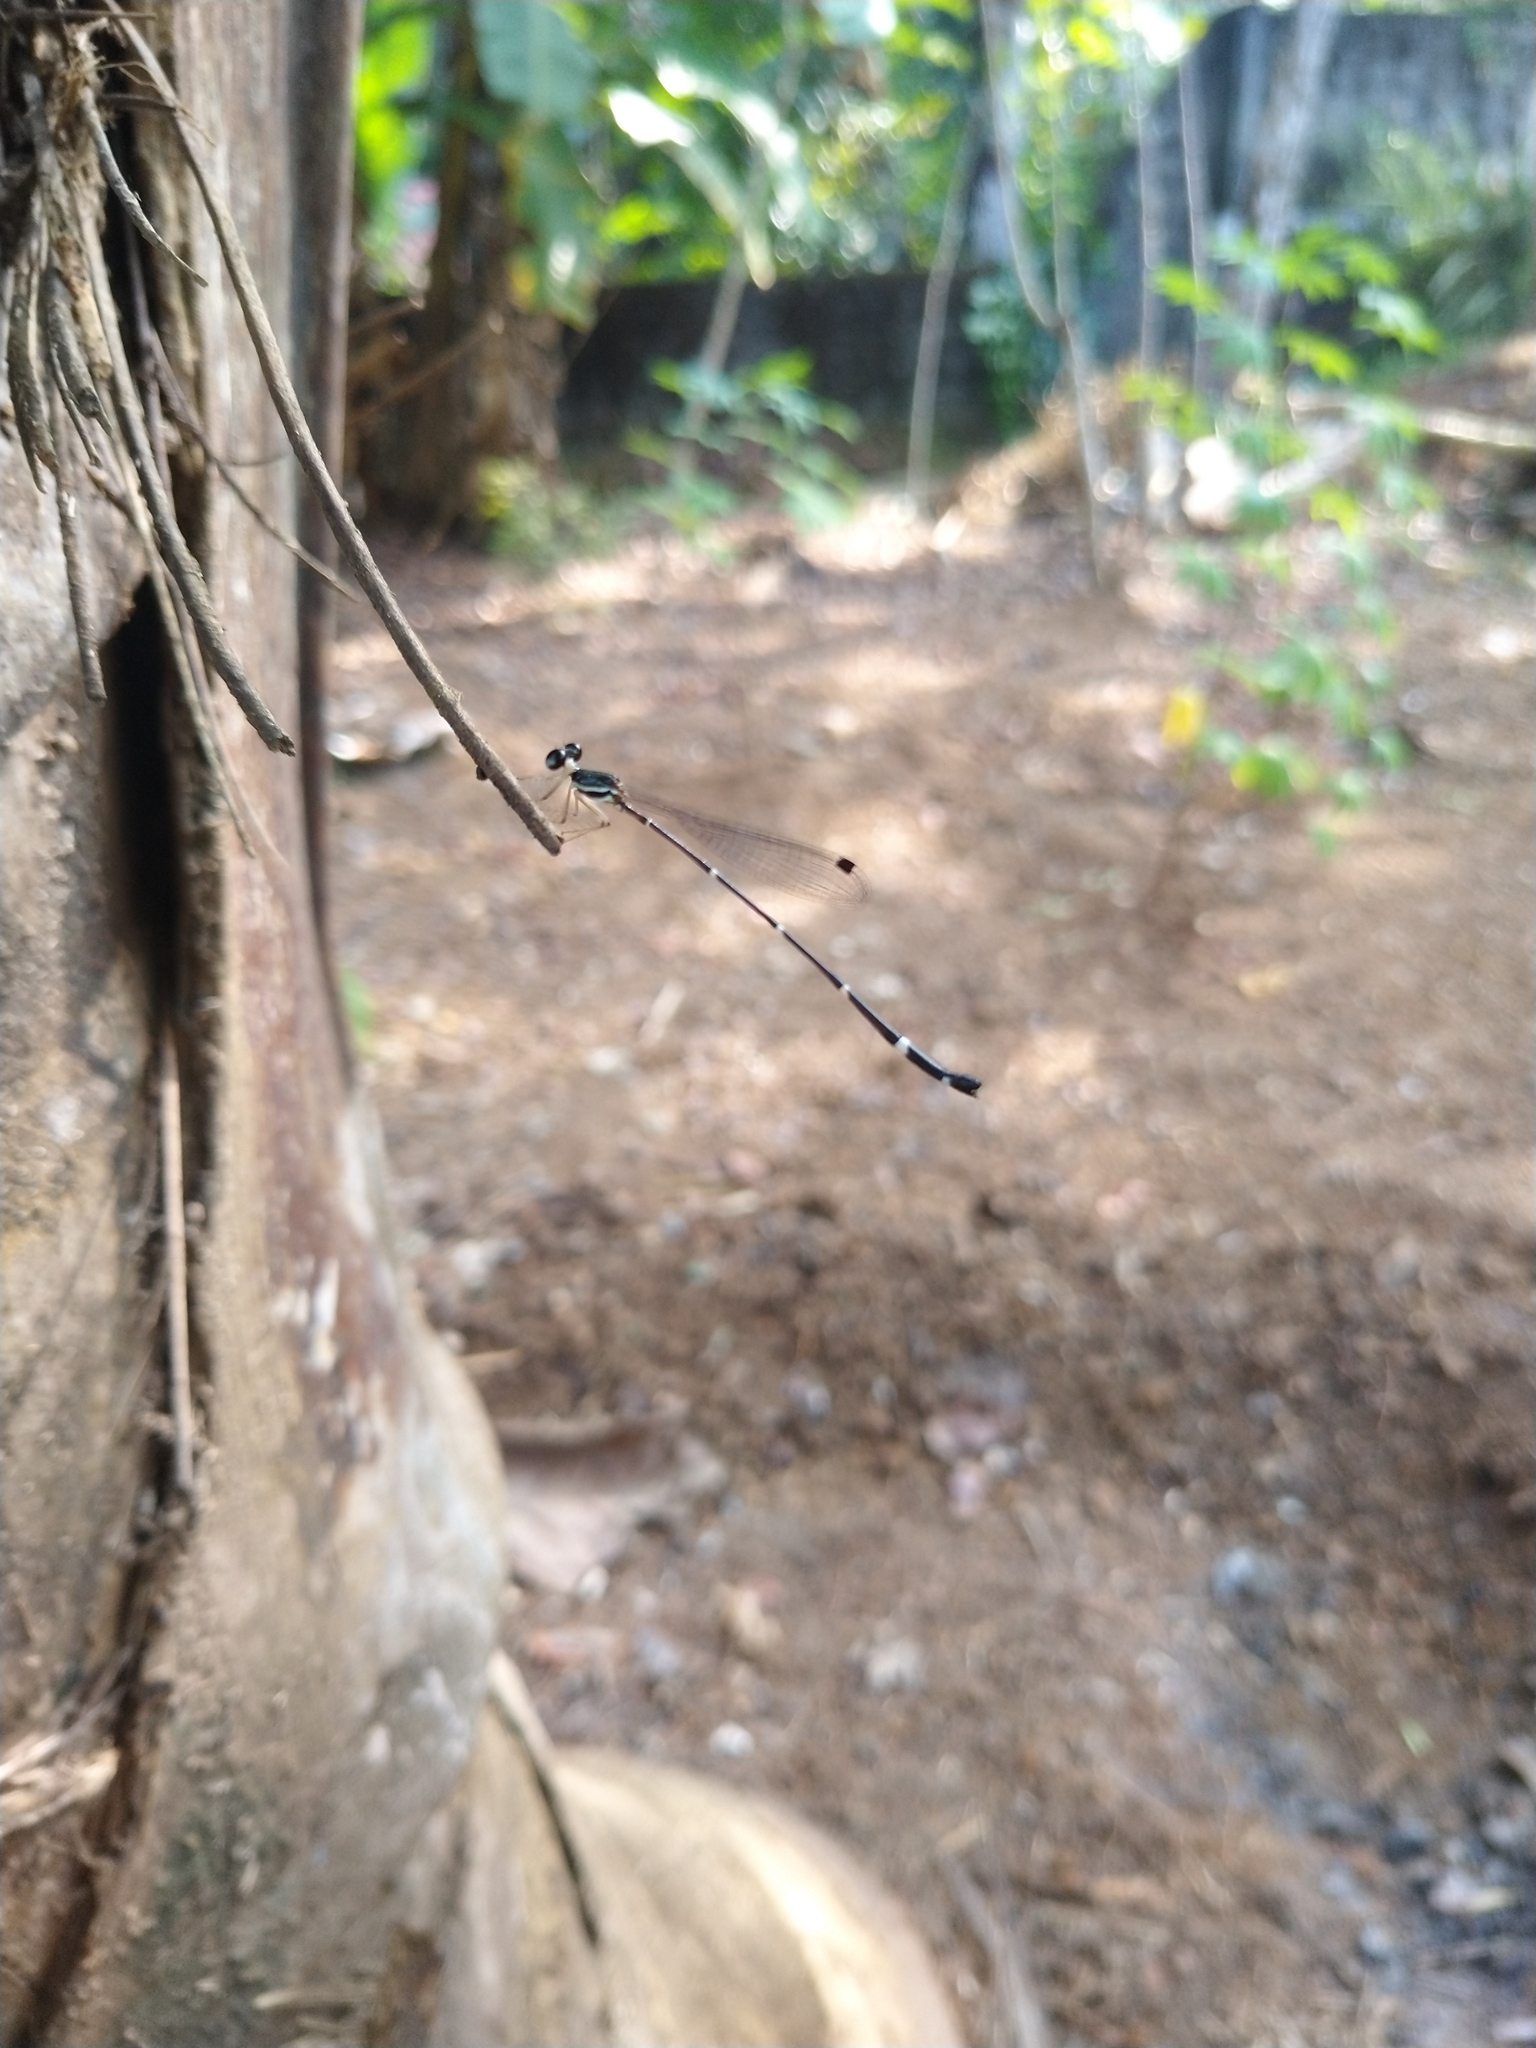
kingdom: Animalia
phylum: Arthropoda
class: Insecta
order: Odonata
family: Platystictidae
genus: Protosticta
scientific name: Protosticta gravelyi
